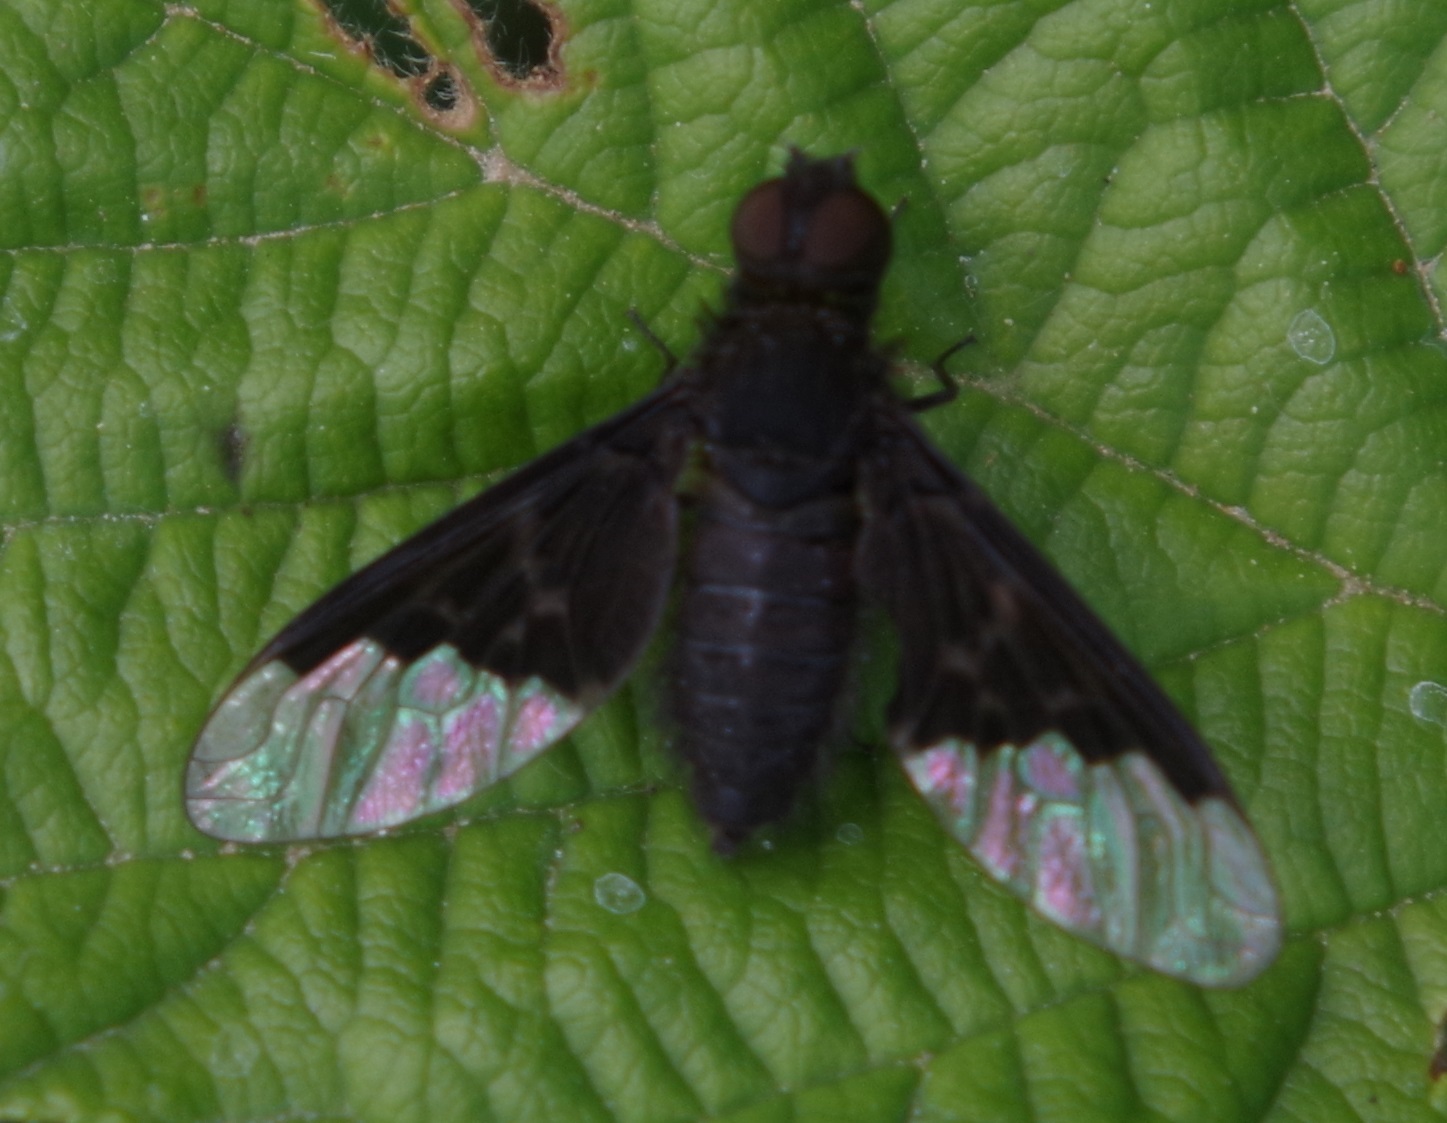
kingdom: Animalia
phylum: Arthropoda
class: Insecta
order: Diptera
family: Bombyliidae
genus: Hemipenthes
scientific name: Hemipenthes morio
